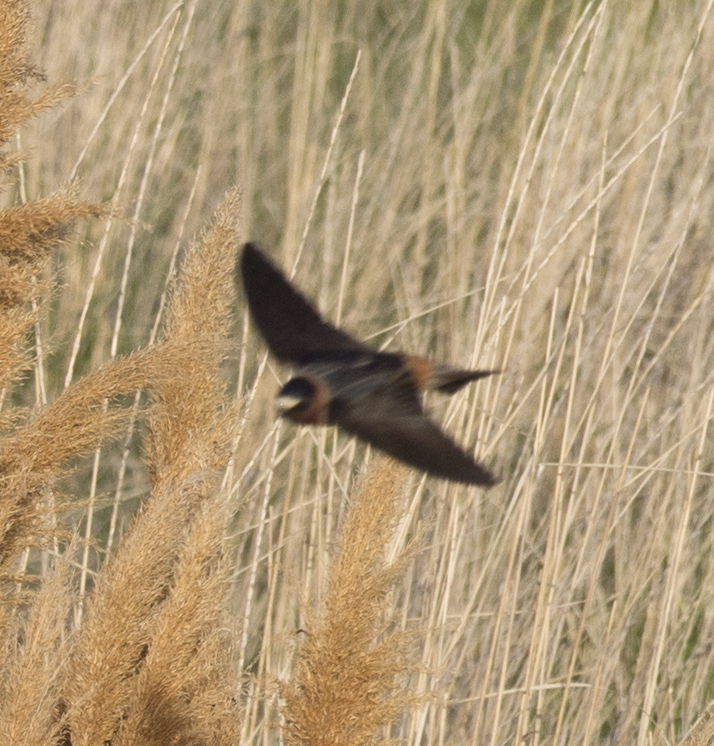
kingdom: Animalia
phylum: Chordata
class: Aves
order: Passeriformes
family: Hirundinidae
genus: Petrochelidon
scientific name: Petrochelidon pyrrhonota
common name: American cliff swallow
